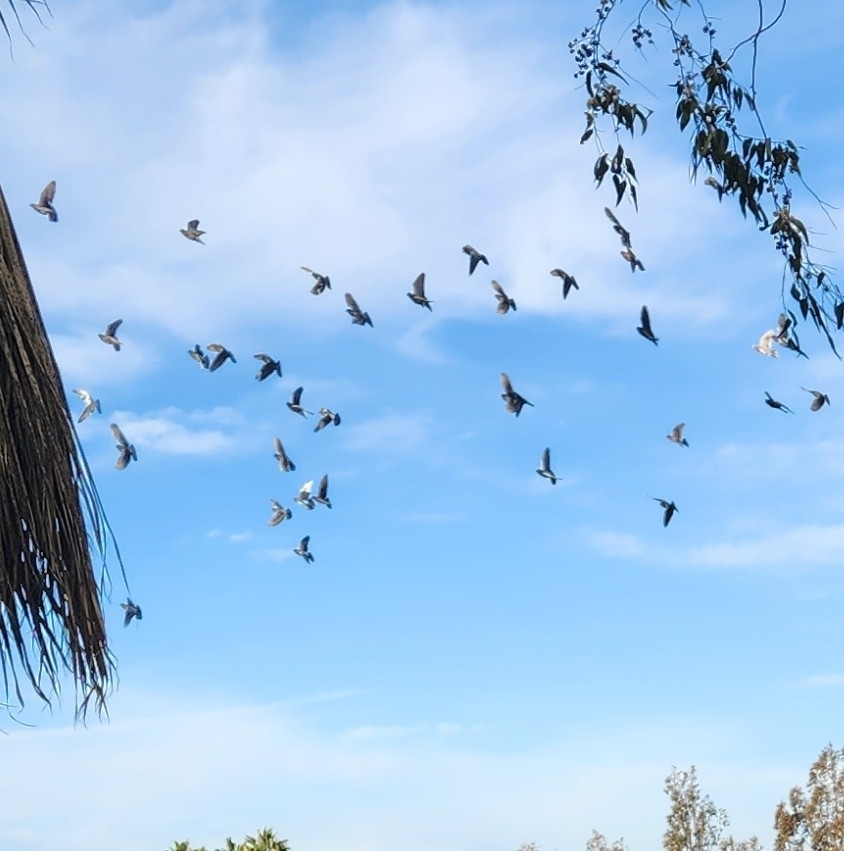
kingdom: Animalia
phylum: Chordata
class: Aves
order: Columbiformes
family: Columbidae
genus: Columba
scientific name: Columba livia
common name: Rock pigeon
